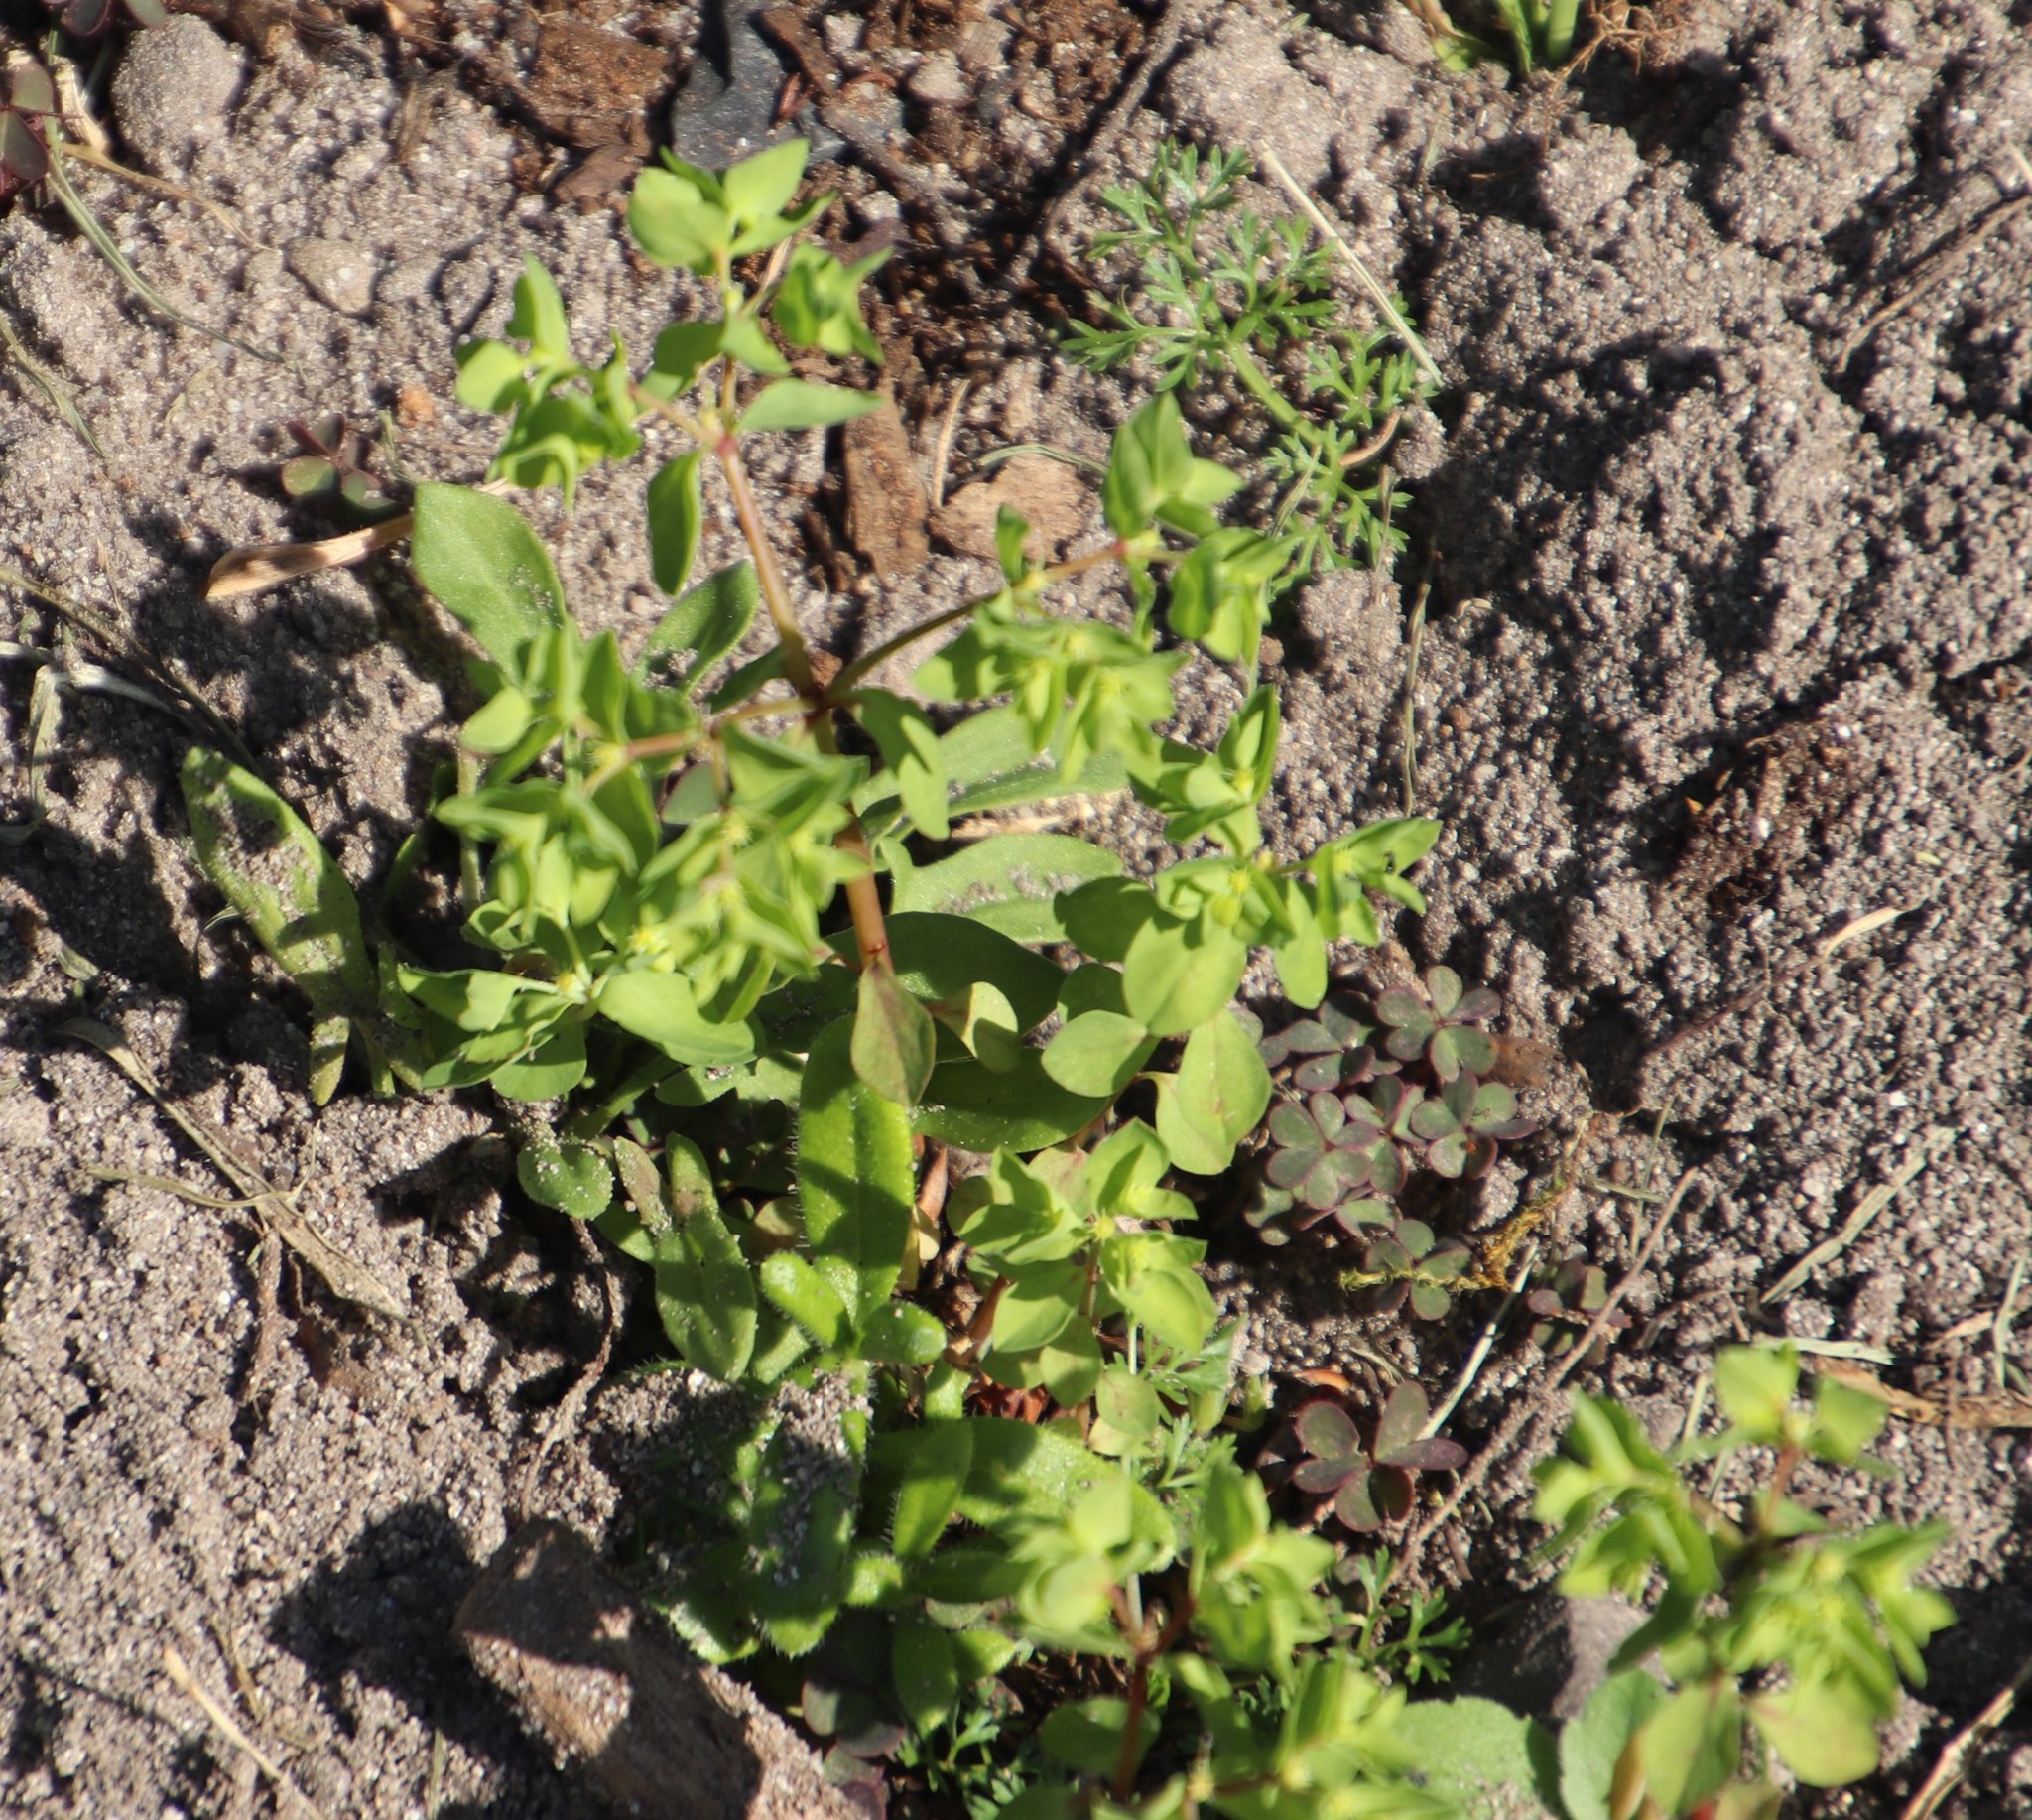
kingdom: Plantae
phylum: Tracheophyta
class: Magnoliopsida
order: Malpighiales
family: Euphorbiaceae
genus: Euphorbia
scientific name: Euphorbia peplus
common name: Petty spurge
